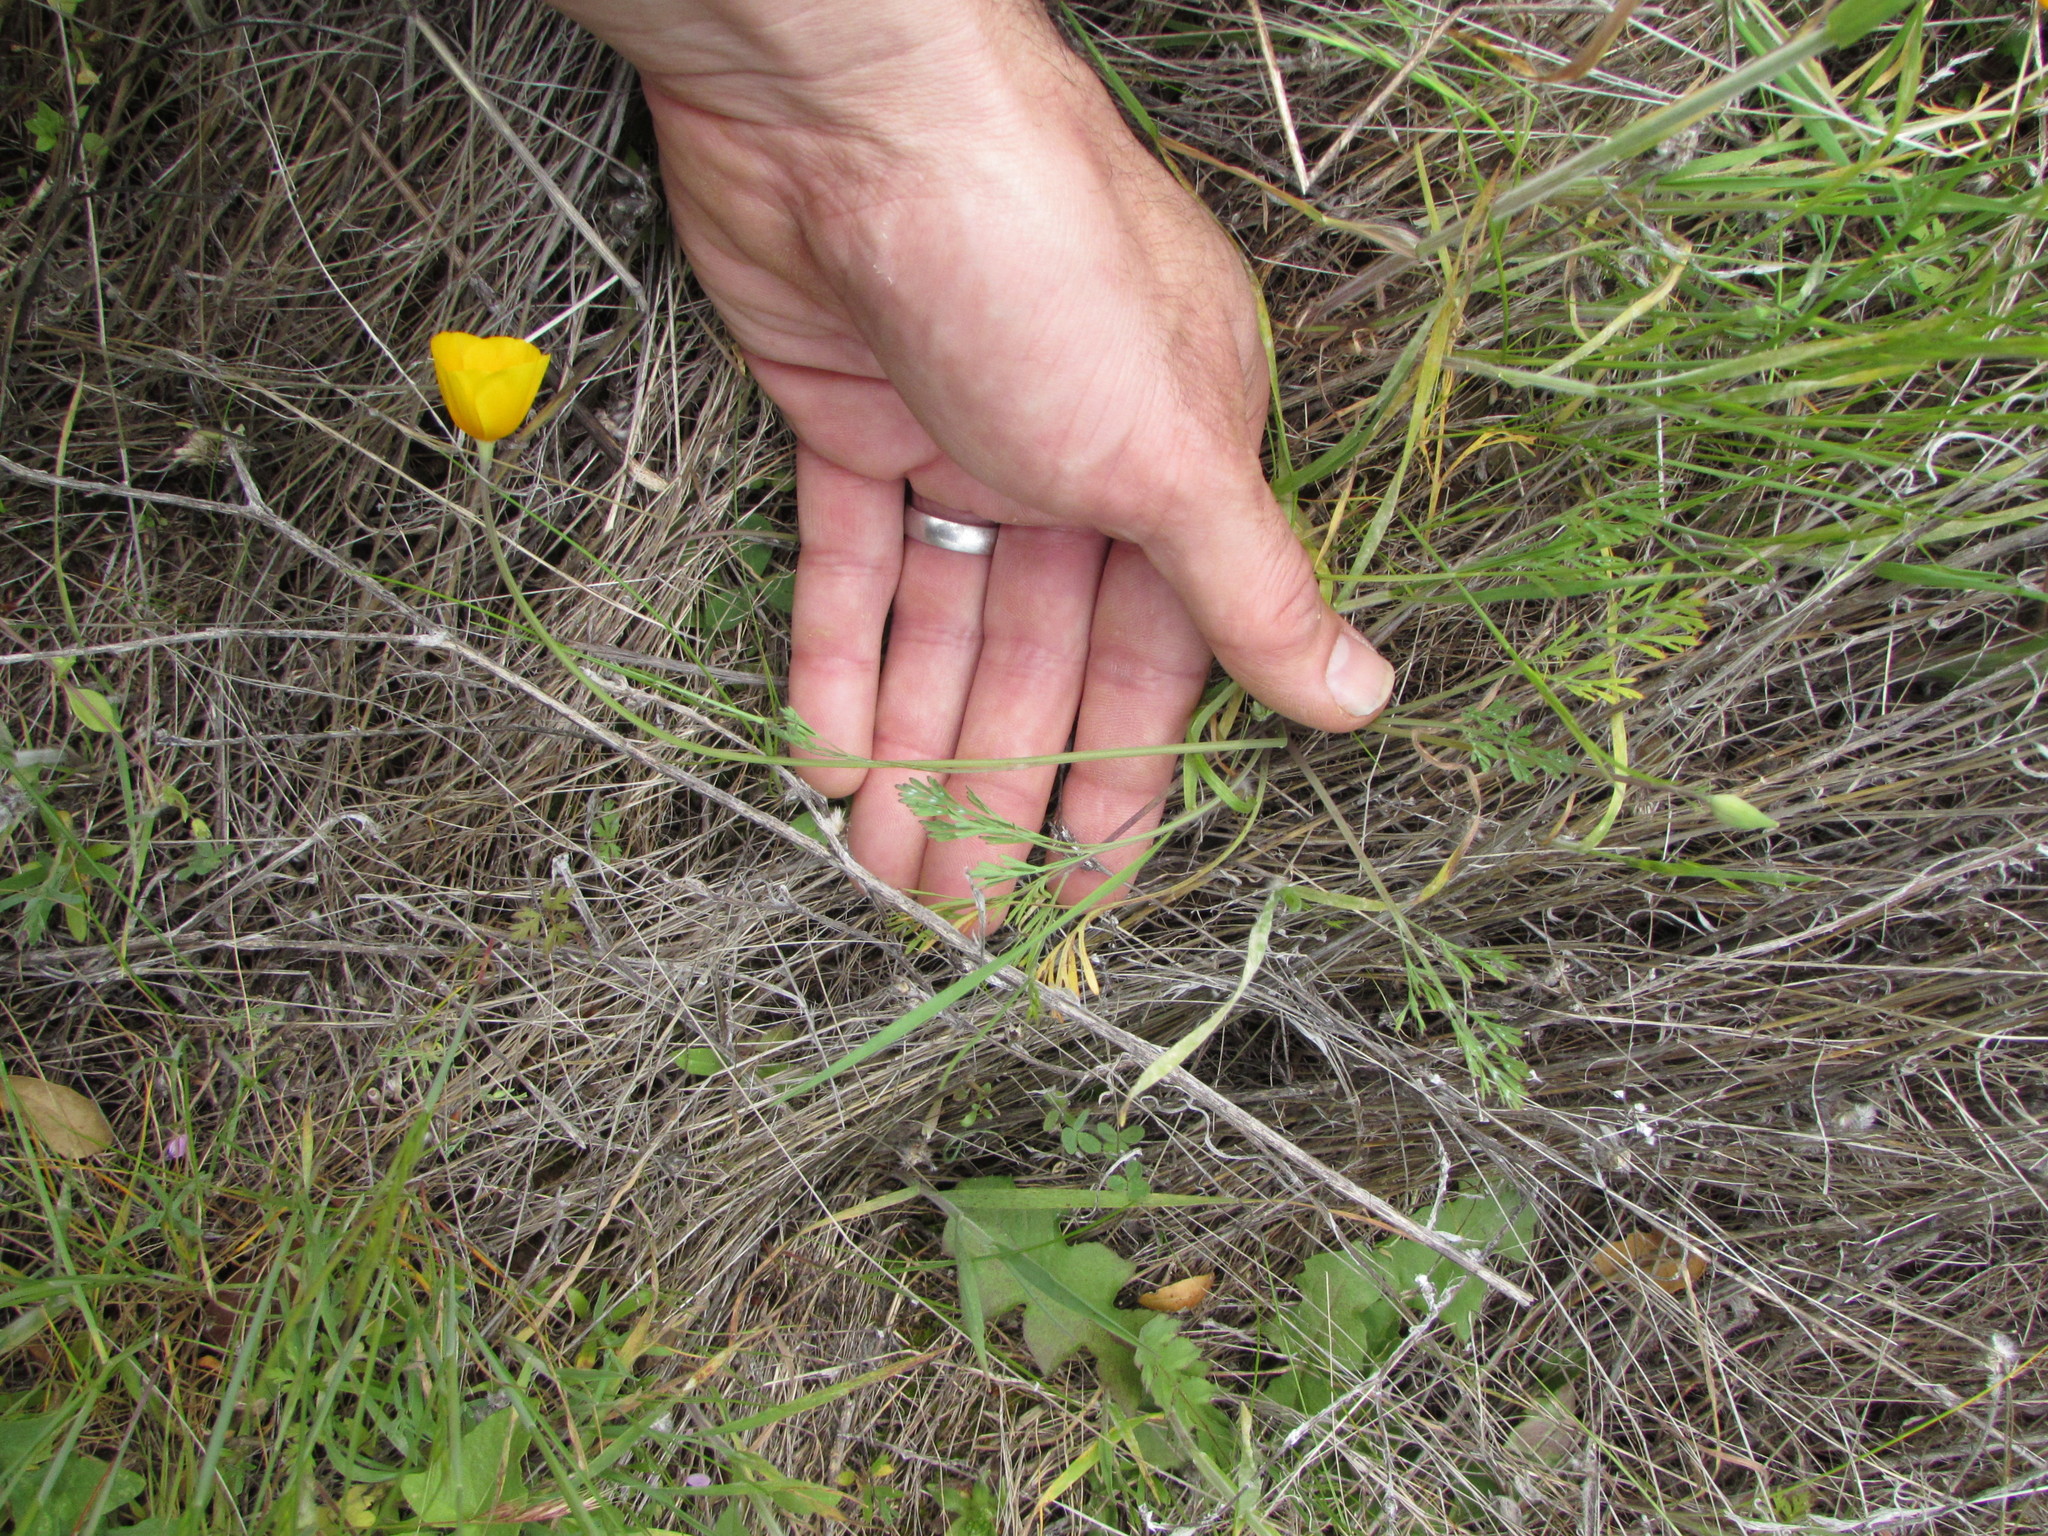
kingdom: Plantae
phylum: Tracheophyta
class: Magnoliopsida
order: Ranunculales
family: Papaveraceae
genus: Eschscholzia
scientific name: Eschscholzia caespitosa
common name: Tufted california-poppy
